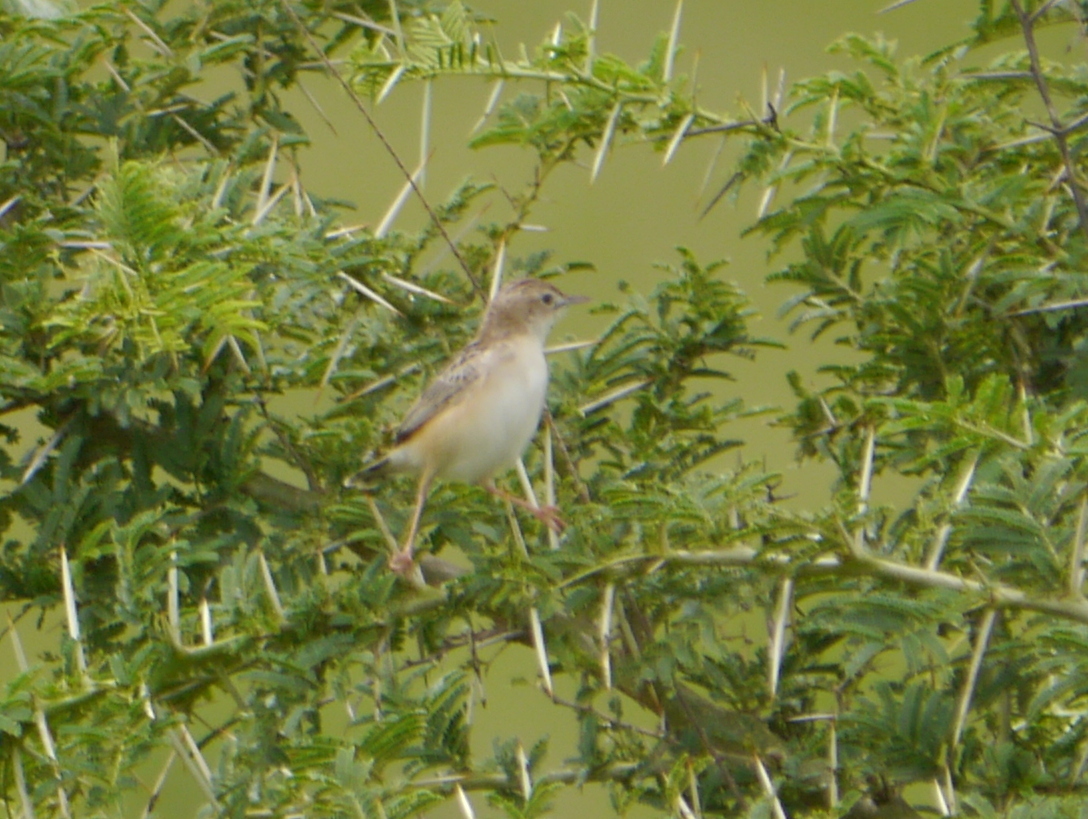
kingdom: Animalia
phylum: Chordata
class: Aves
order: Passeriformes
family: Cisticolidae
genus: Cisticola
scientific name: Cisticola
